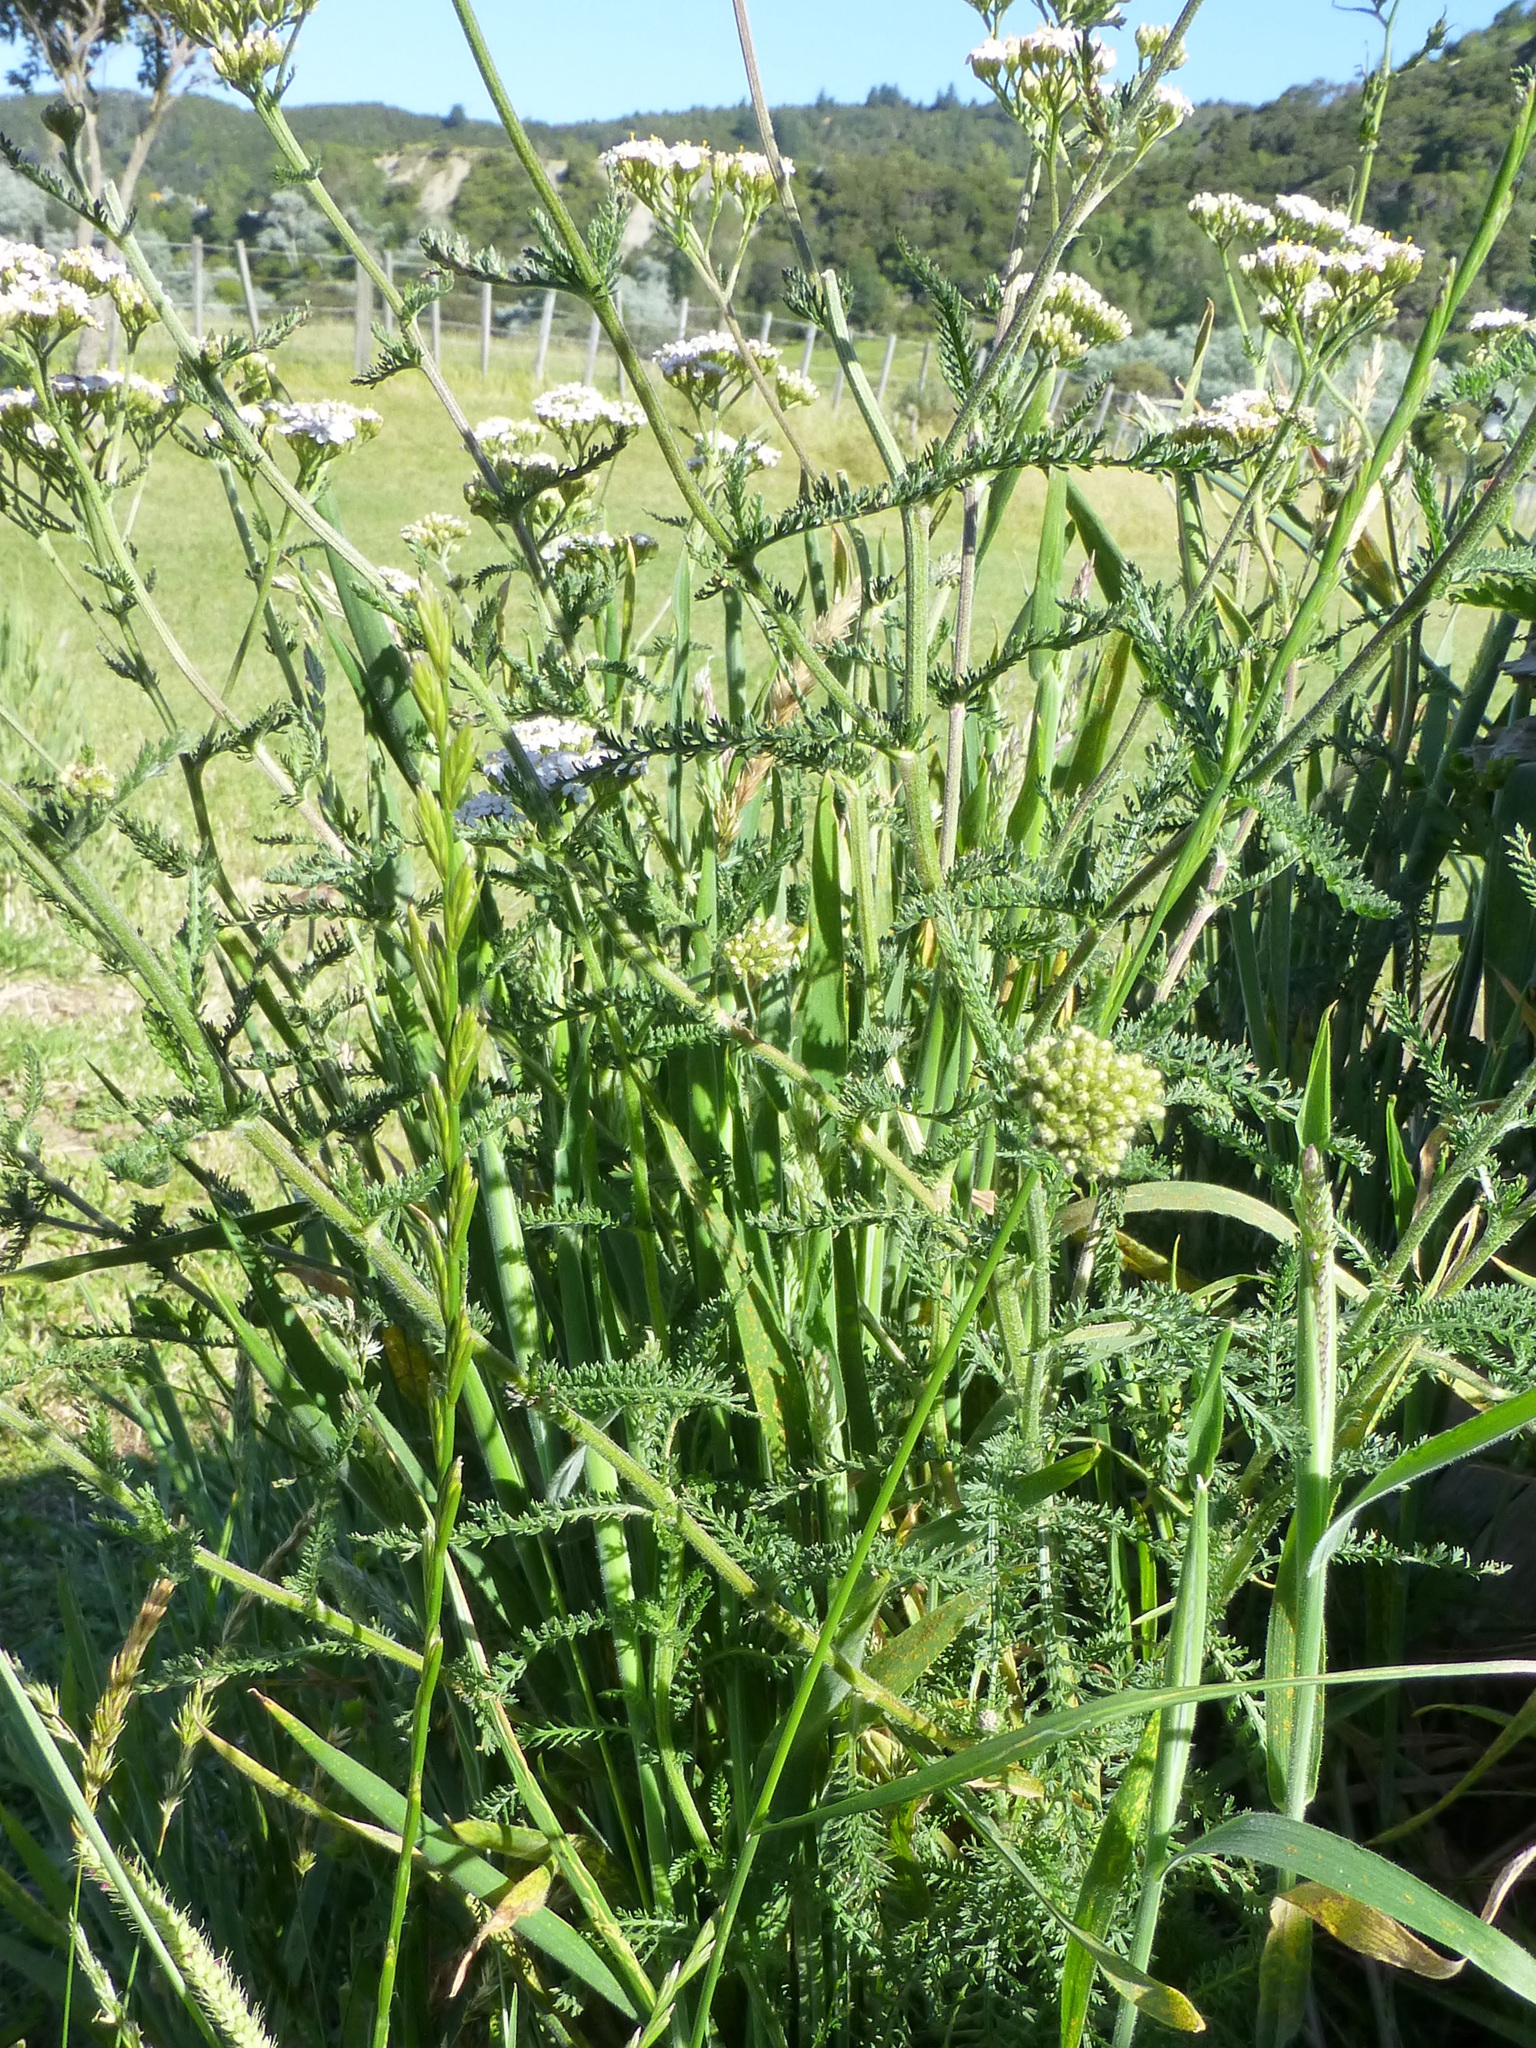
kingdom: Plantae
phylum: Tracheophyta
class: Magnoliopsida
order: Asterales
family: Asteraceae
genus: Achillea
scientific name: Achillea millefolium
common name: Yarrow
